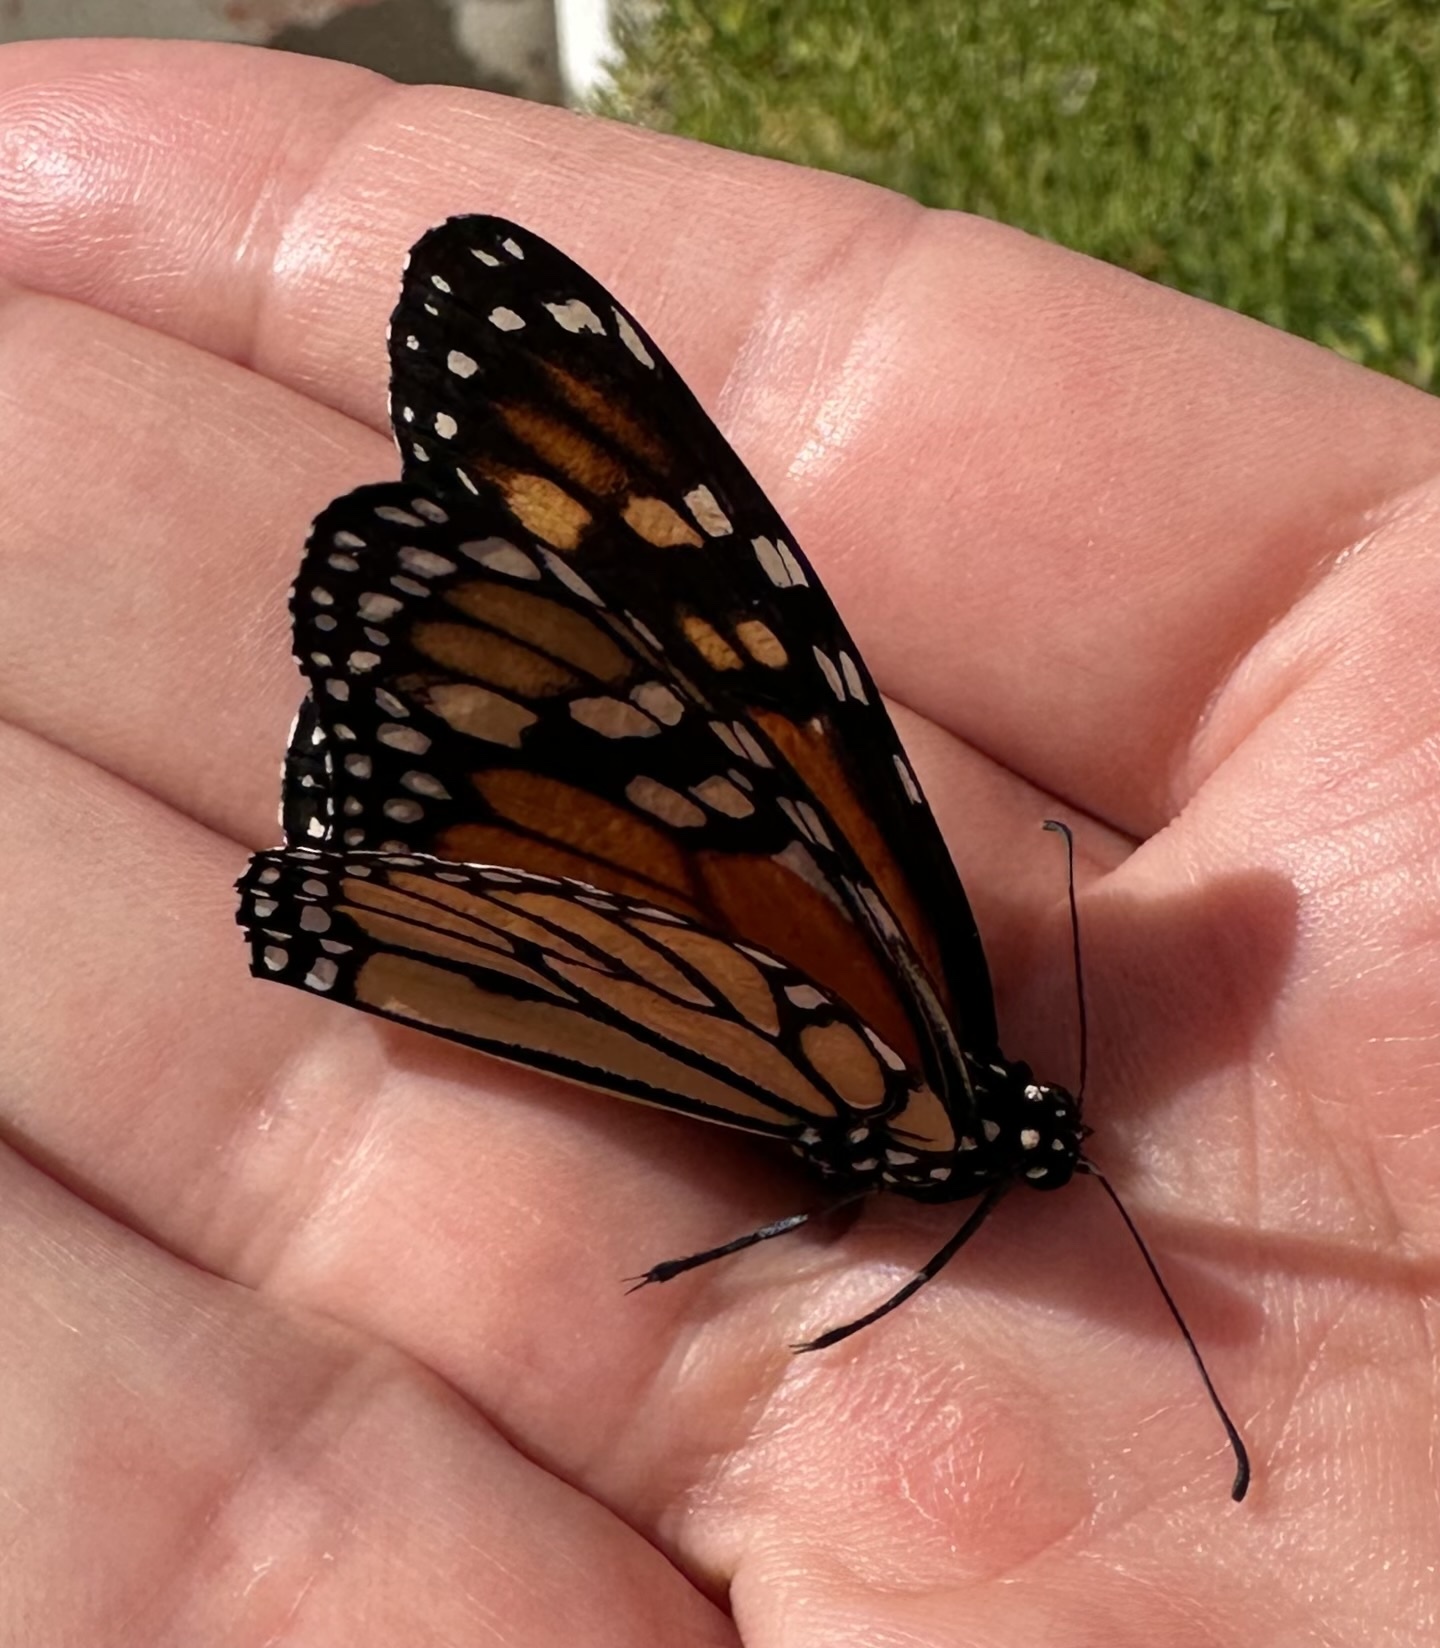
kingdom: Animalia
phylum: Arthropoda
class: Insecta
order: Lepidoptera
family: Nymphalidae
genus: Danaus
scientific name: Danaus plexippus
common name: Monarch
